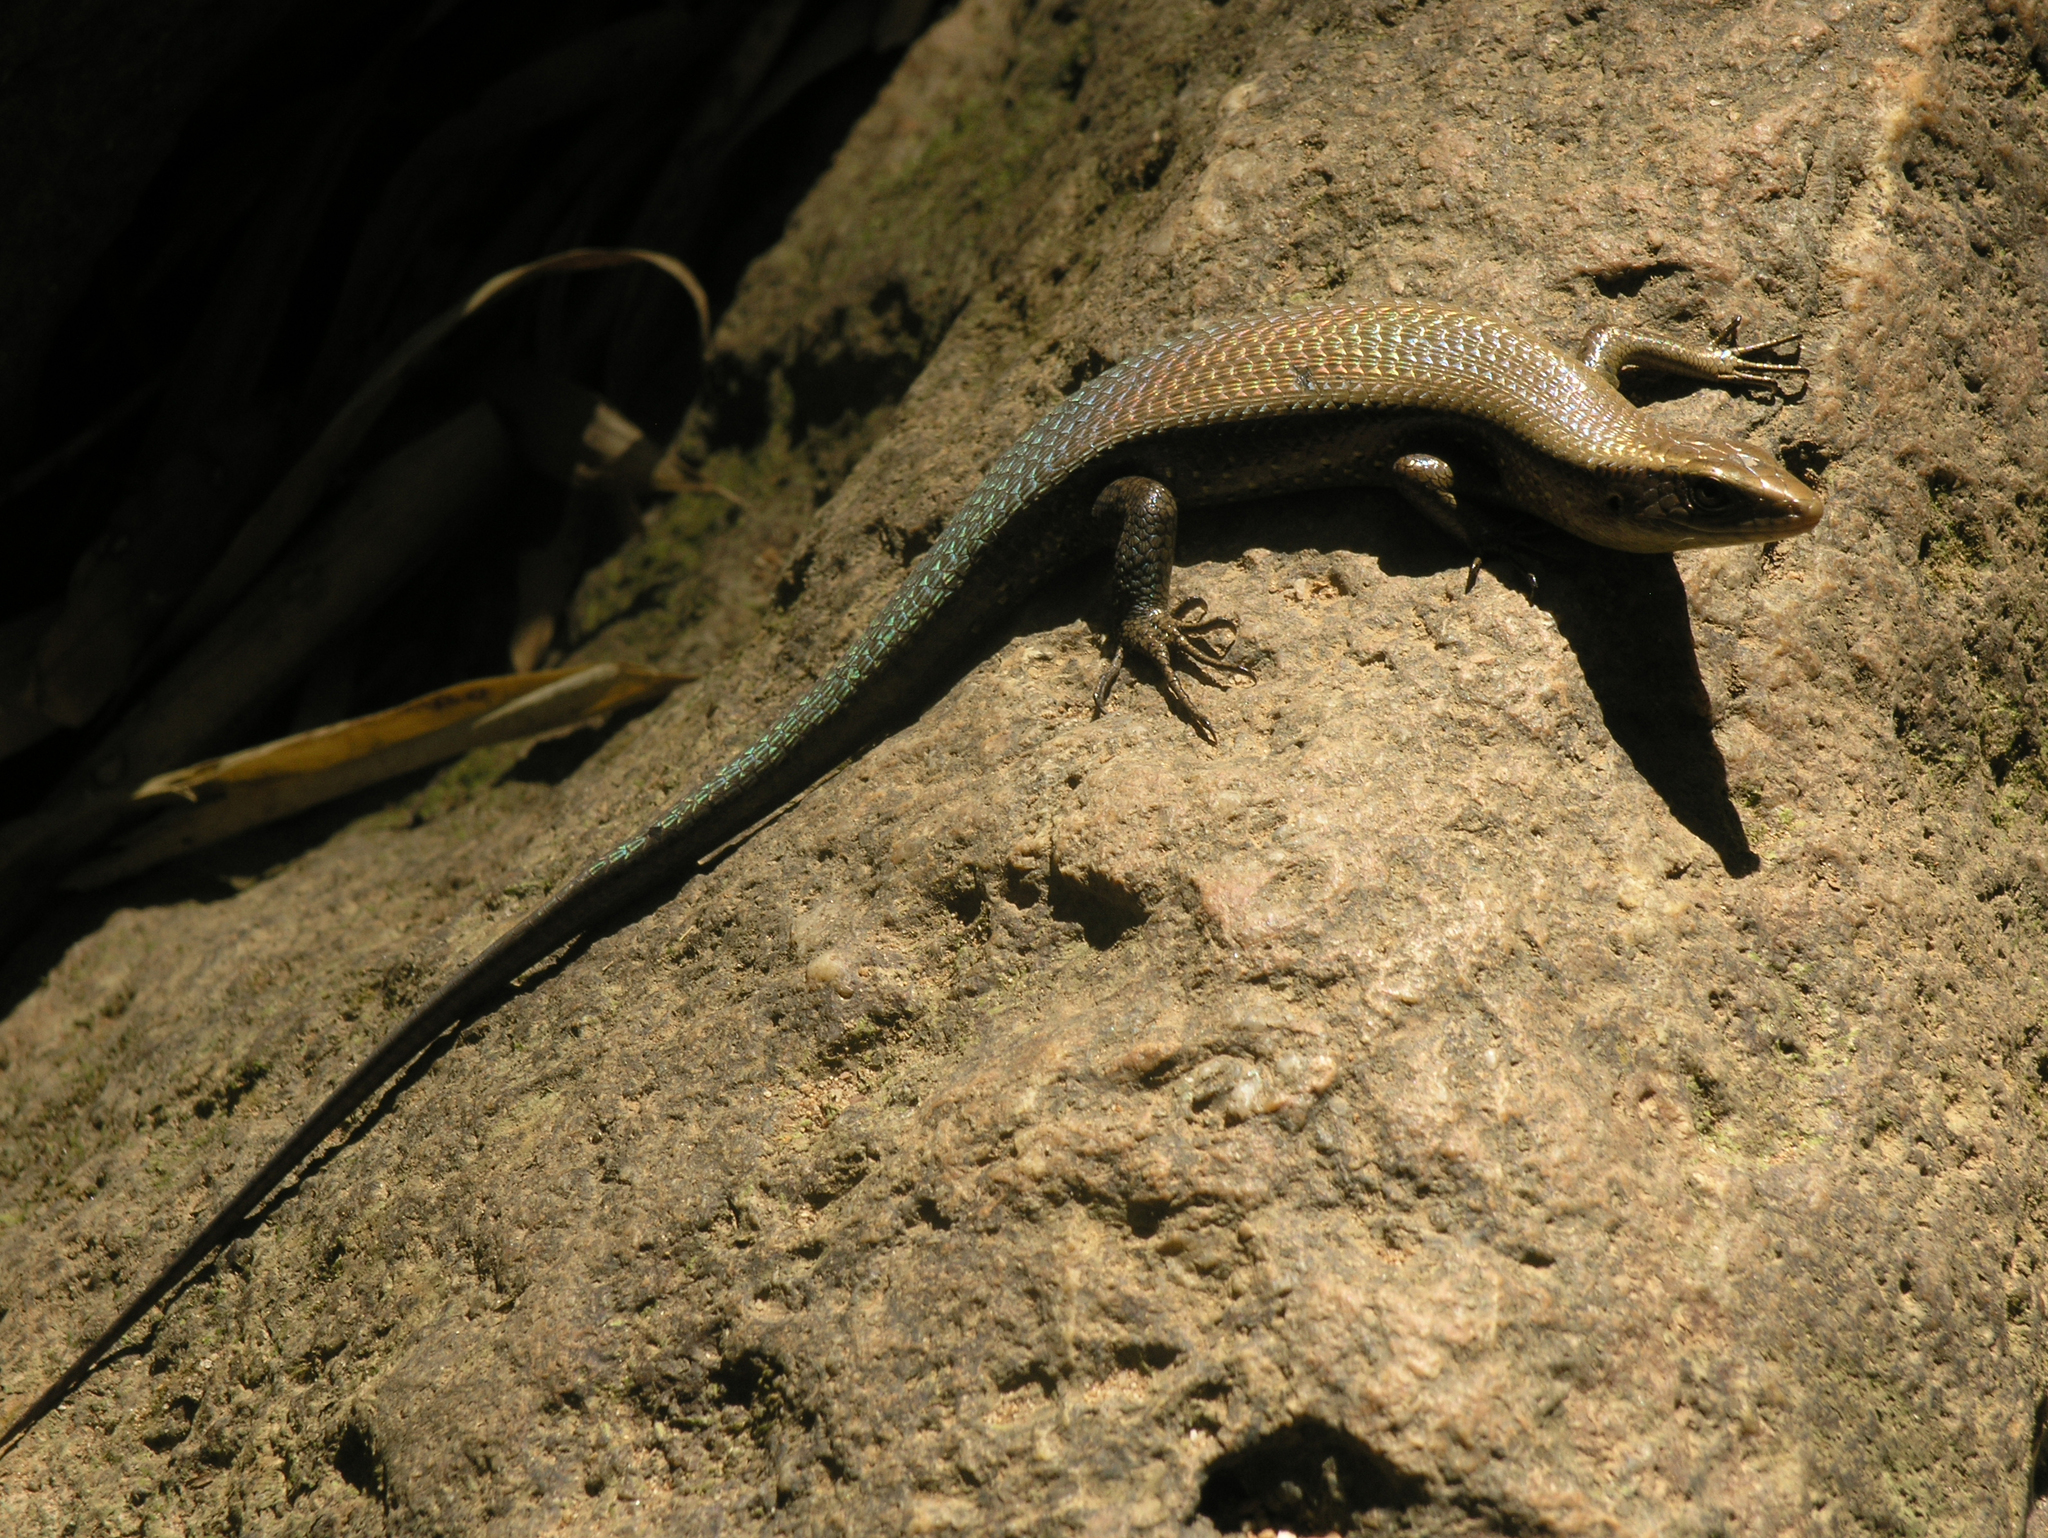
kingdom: Animalia
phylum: Chordata
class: Squamata
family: Scincidae
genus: Eutropis
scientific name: Eutropis multifasciata
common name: Common mabuya
